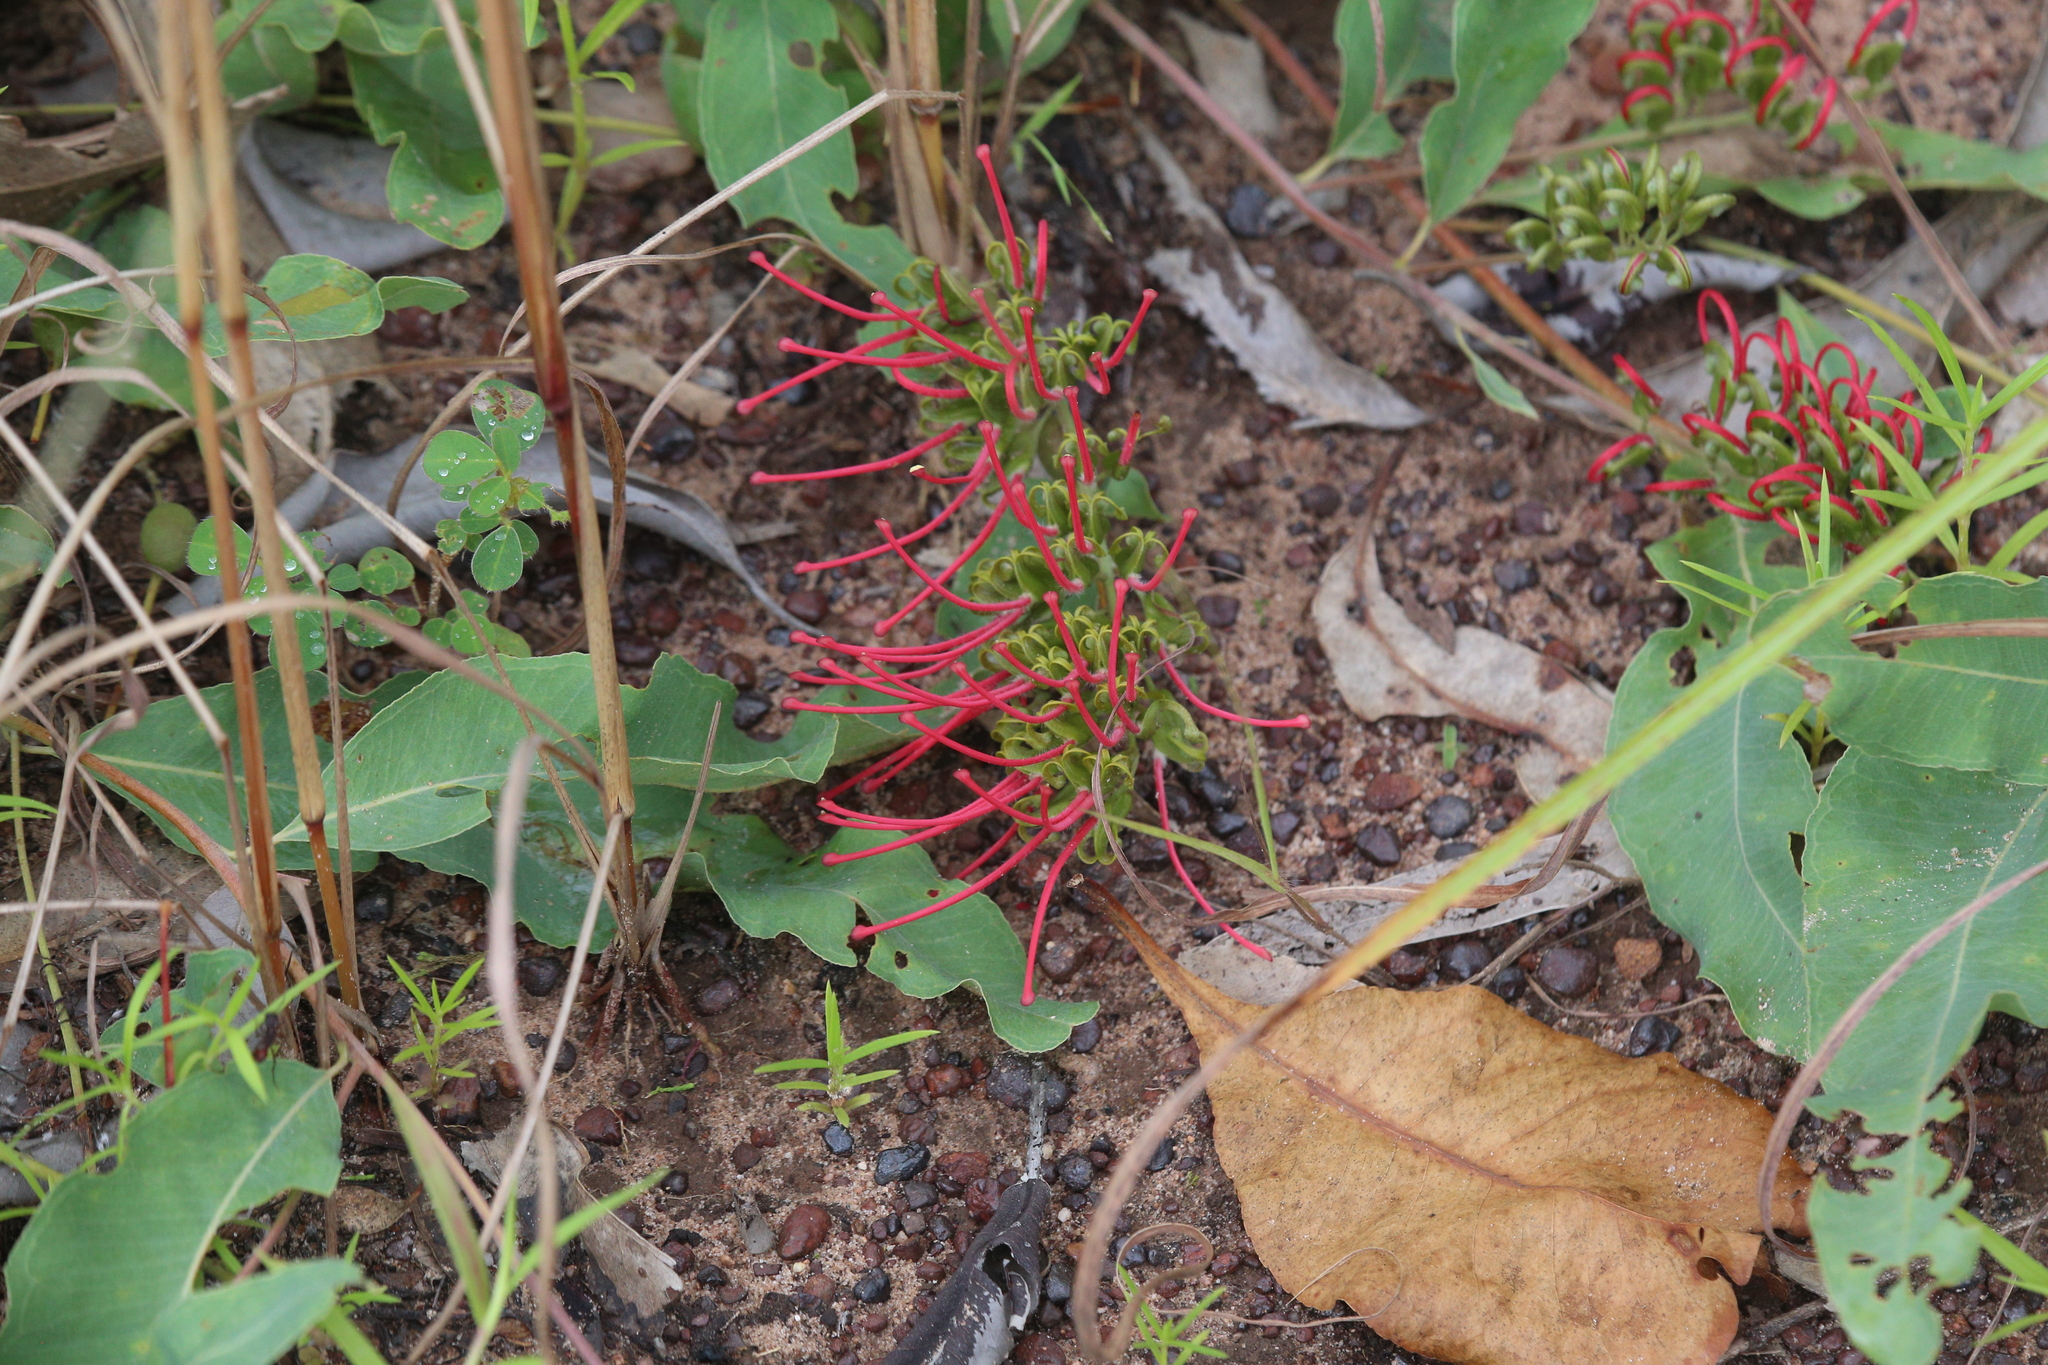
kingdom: Plantae
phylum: Tracheophyta
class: Magnoliopsida
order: Proteales
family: Proteaceae
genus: Grevillea
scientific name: Grevillea goodii
